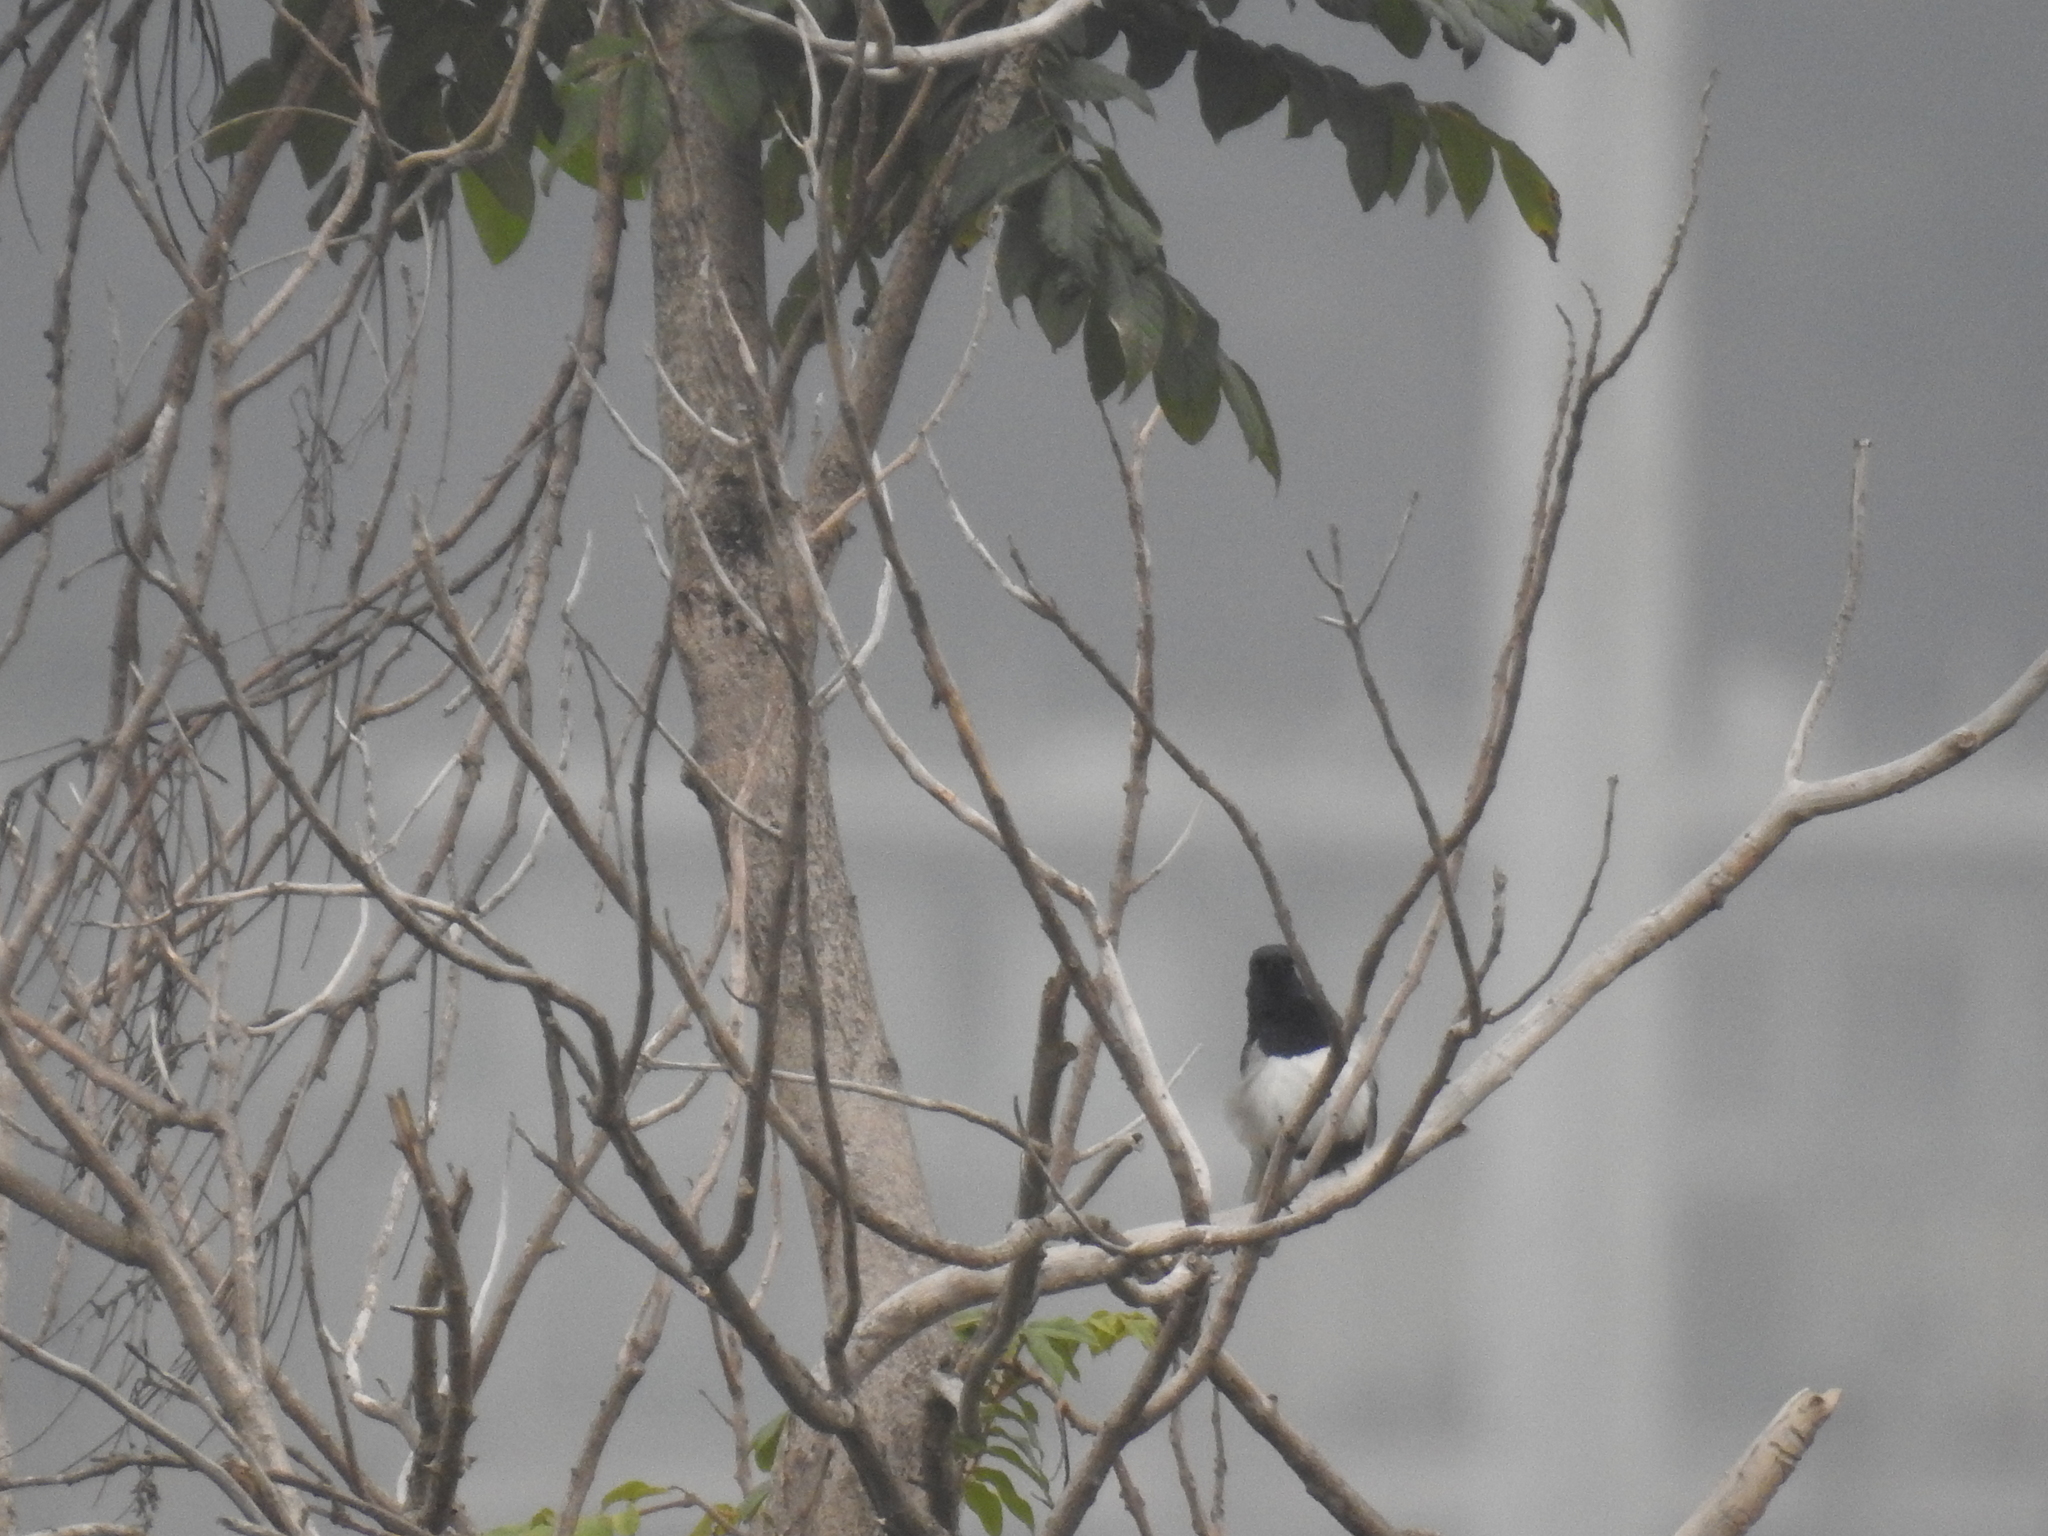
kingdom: Animalia
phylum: Chordata
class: Aves
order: Passeriformes
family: Muscicapidae
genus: Copsychus
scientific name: Copsychus saularis
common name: Oriental magpie-robin
